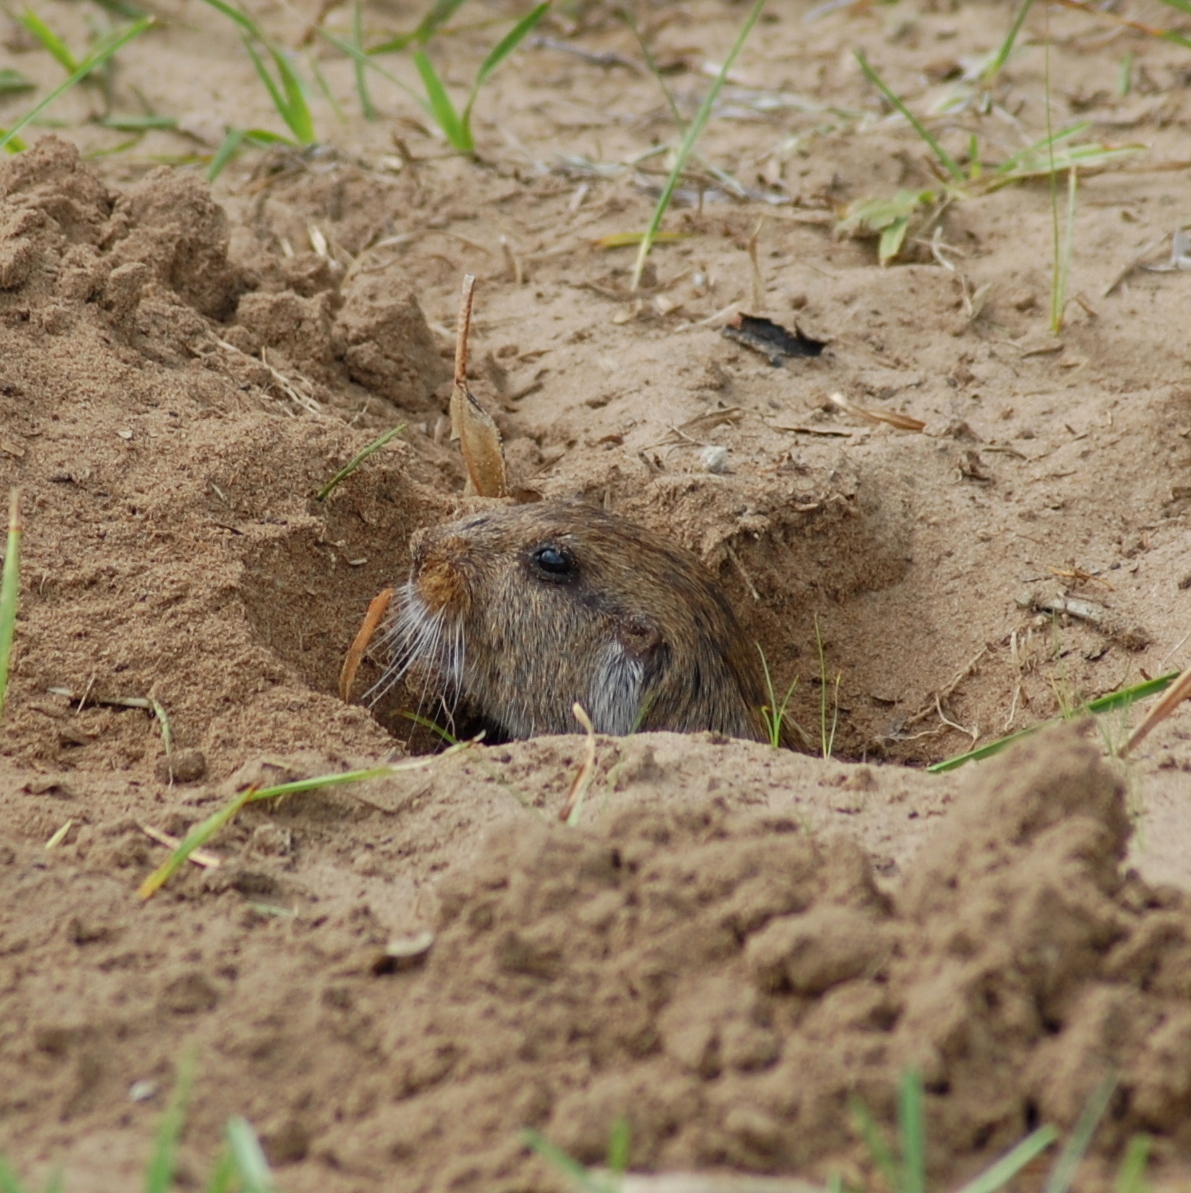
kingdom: Animalia
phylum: Chordata
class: Mammalia
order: Rodentia
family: Ctenomyidae
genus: Ctenomys
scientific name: Ctenomys torquatus
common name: Collared tuco-tuco
